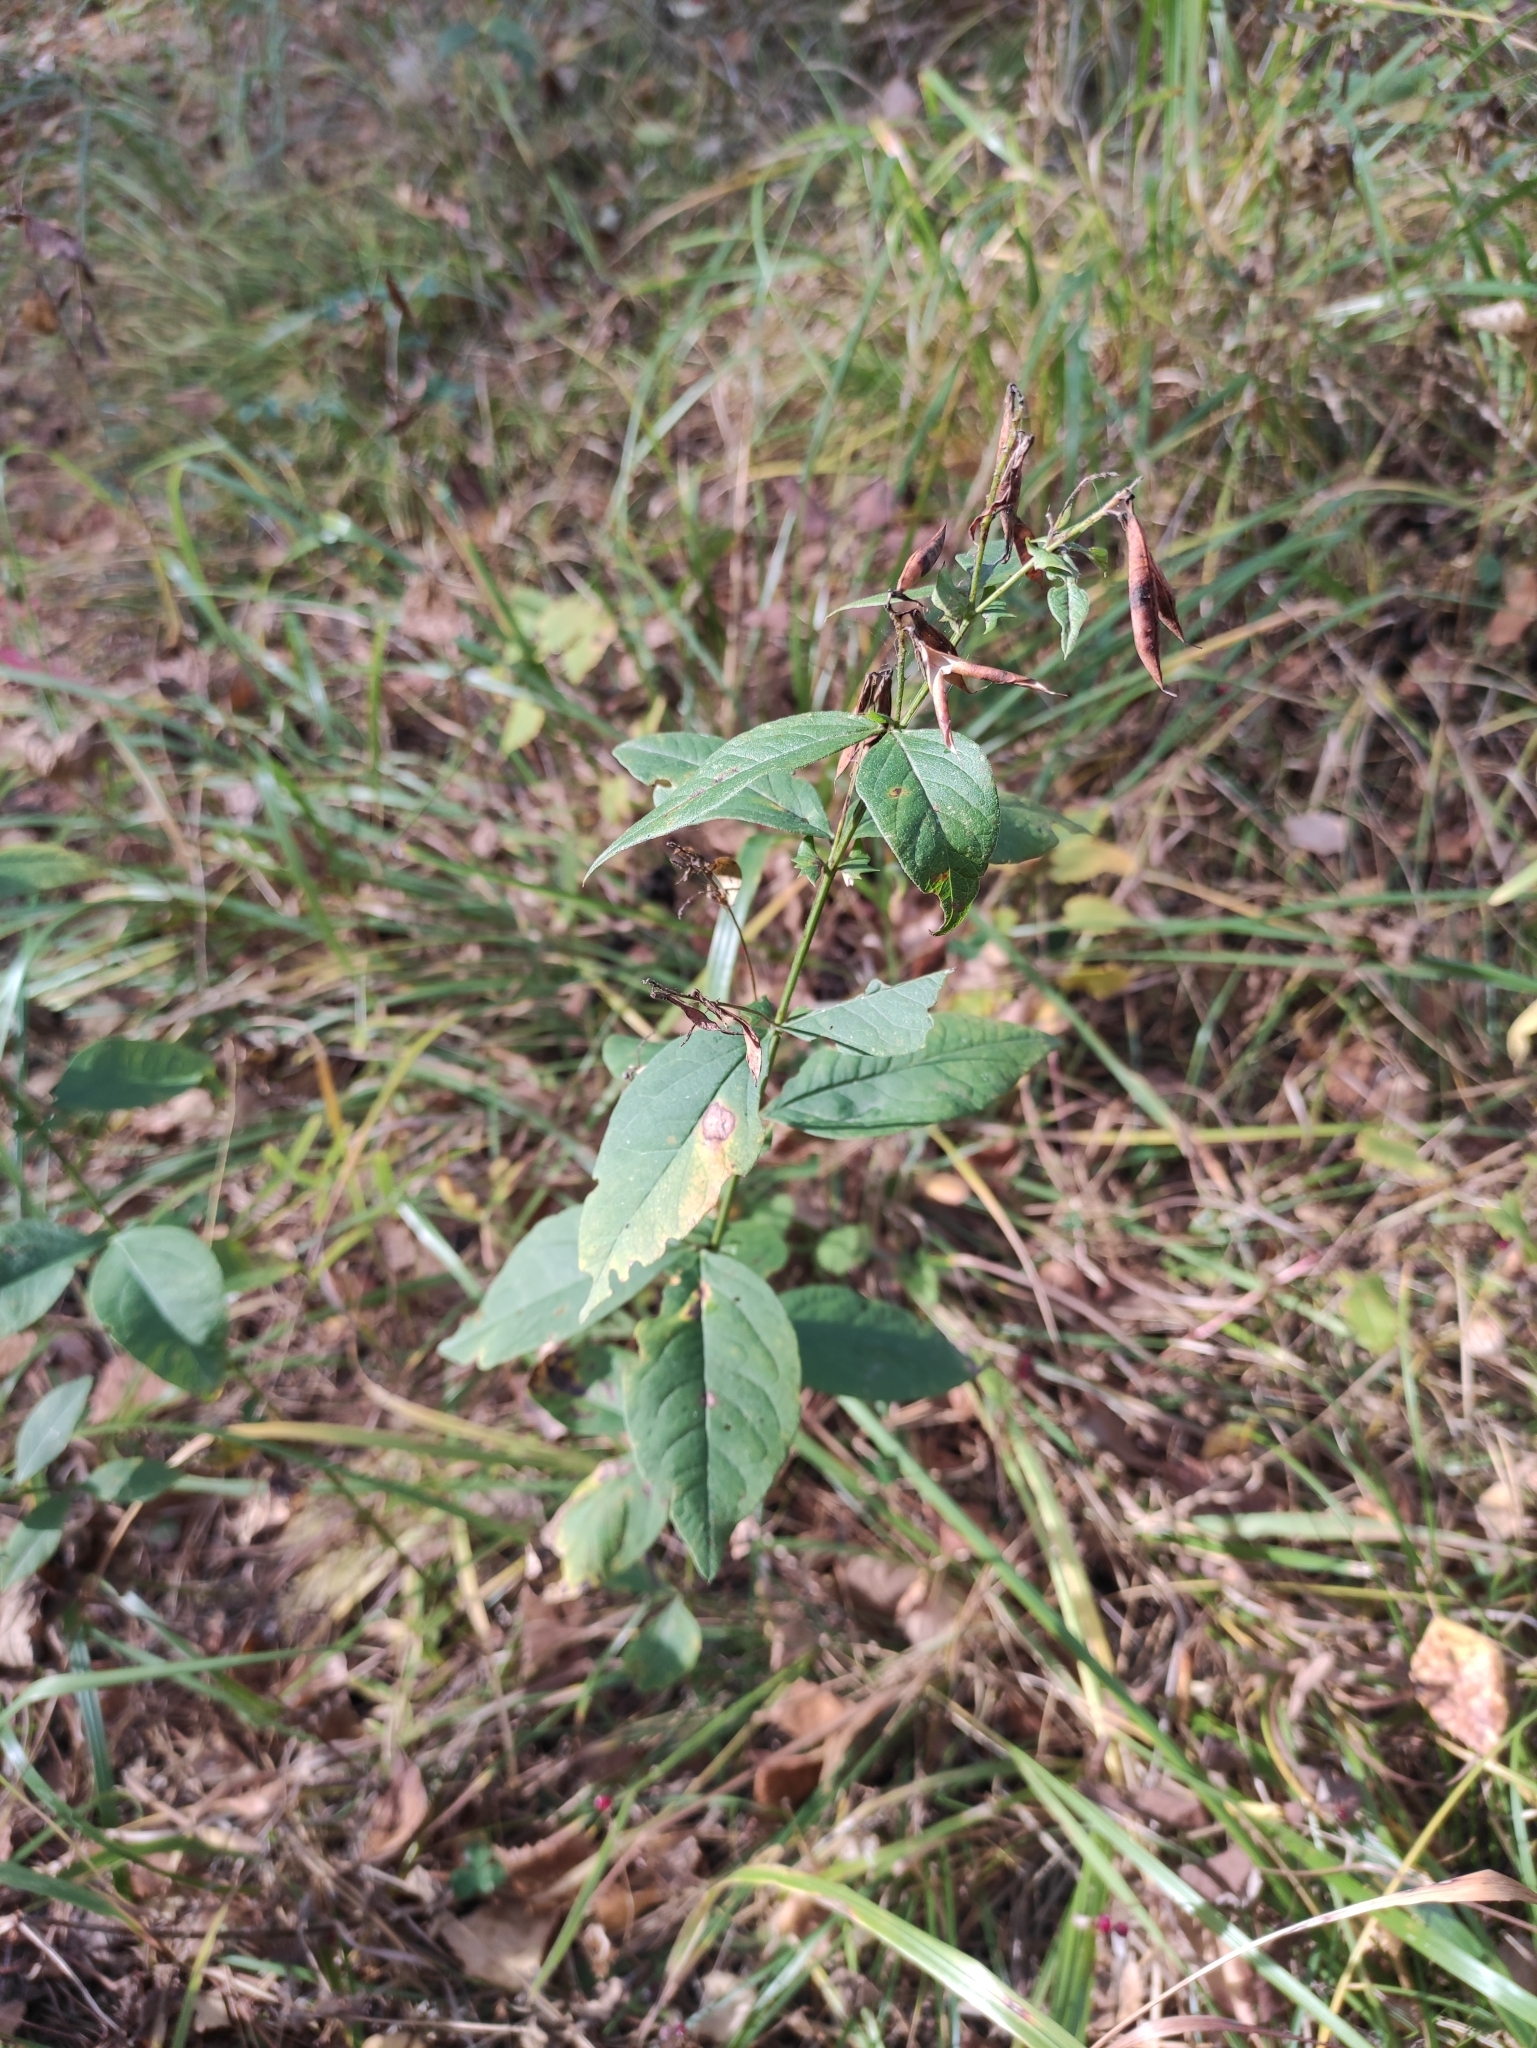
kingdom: Plantae
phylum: Tracheophyta
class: Magnoliopsida
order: Fabales
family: Fabaceae
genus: Vicia
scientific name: Vicia unijuga
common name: Two-leaf vetch
